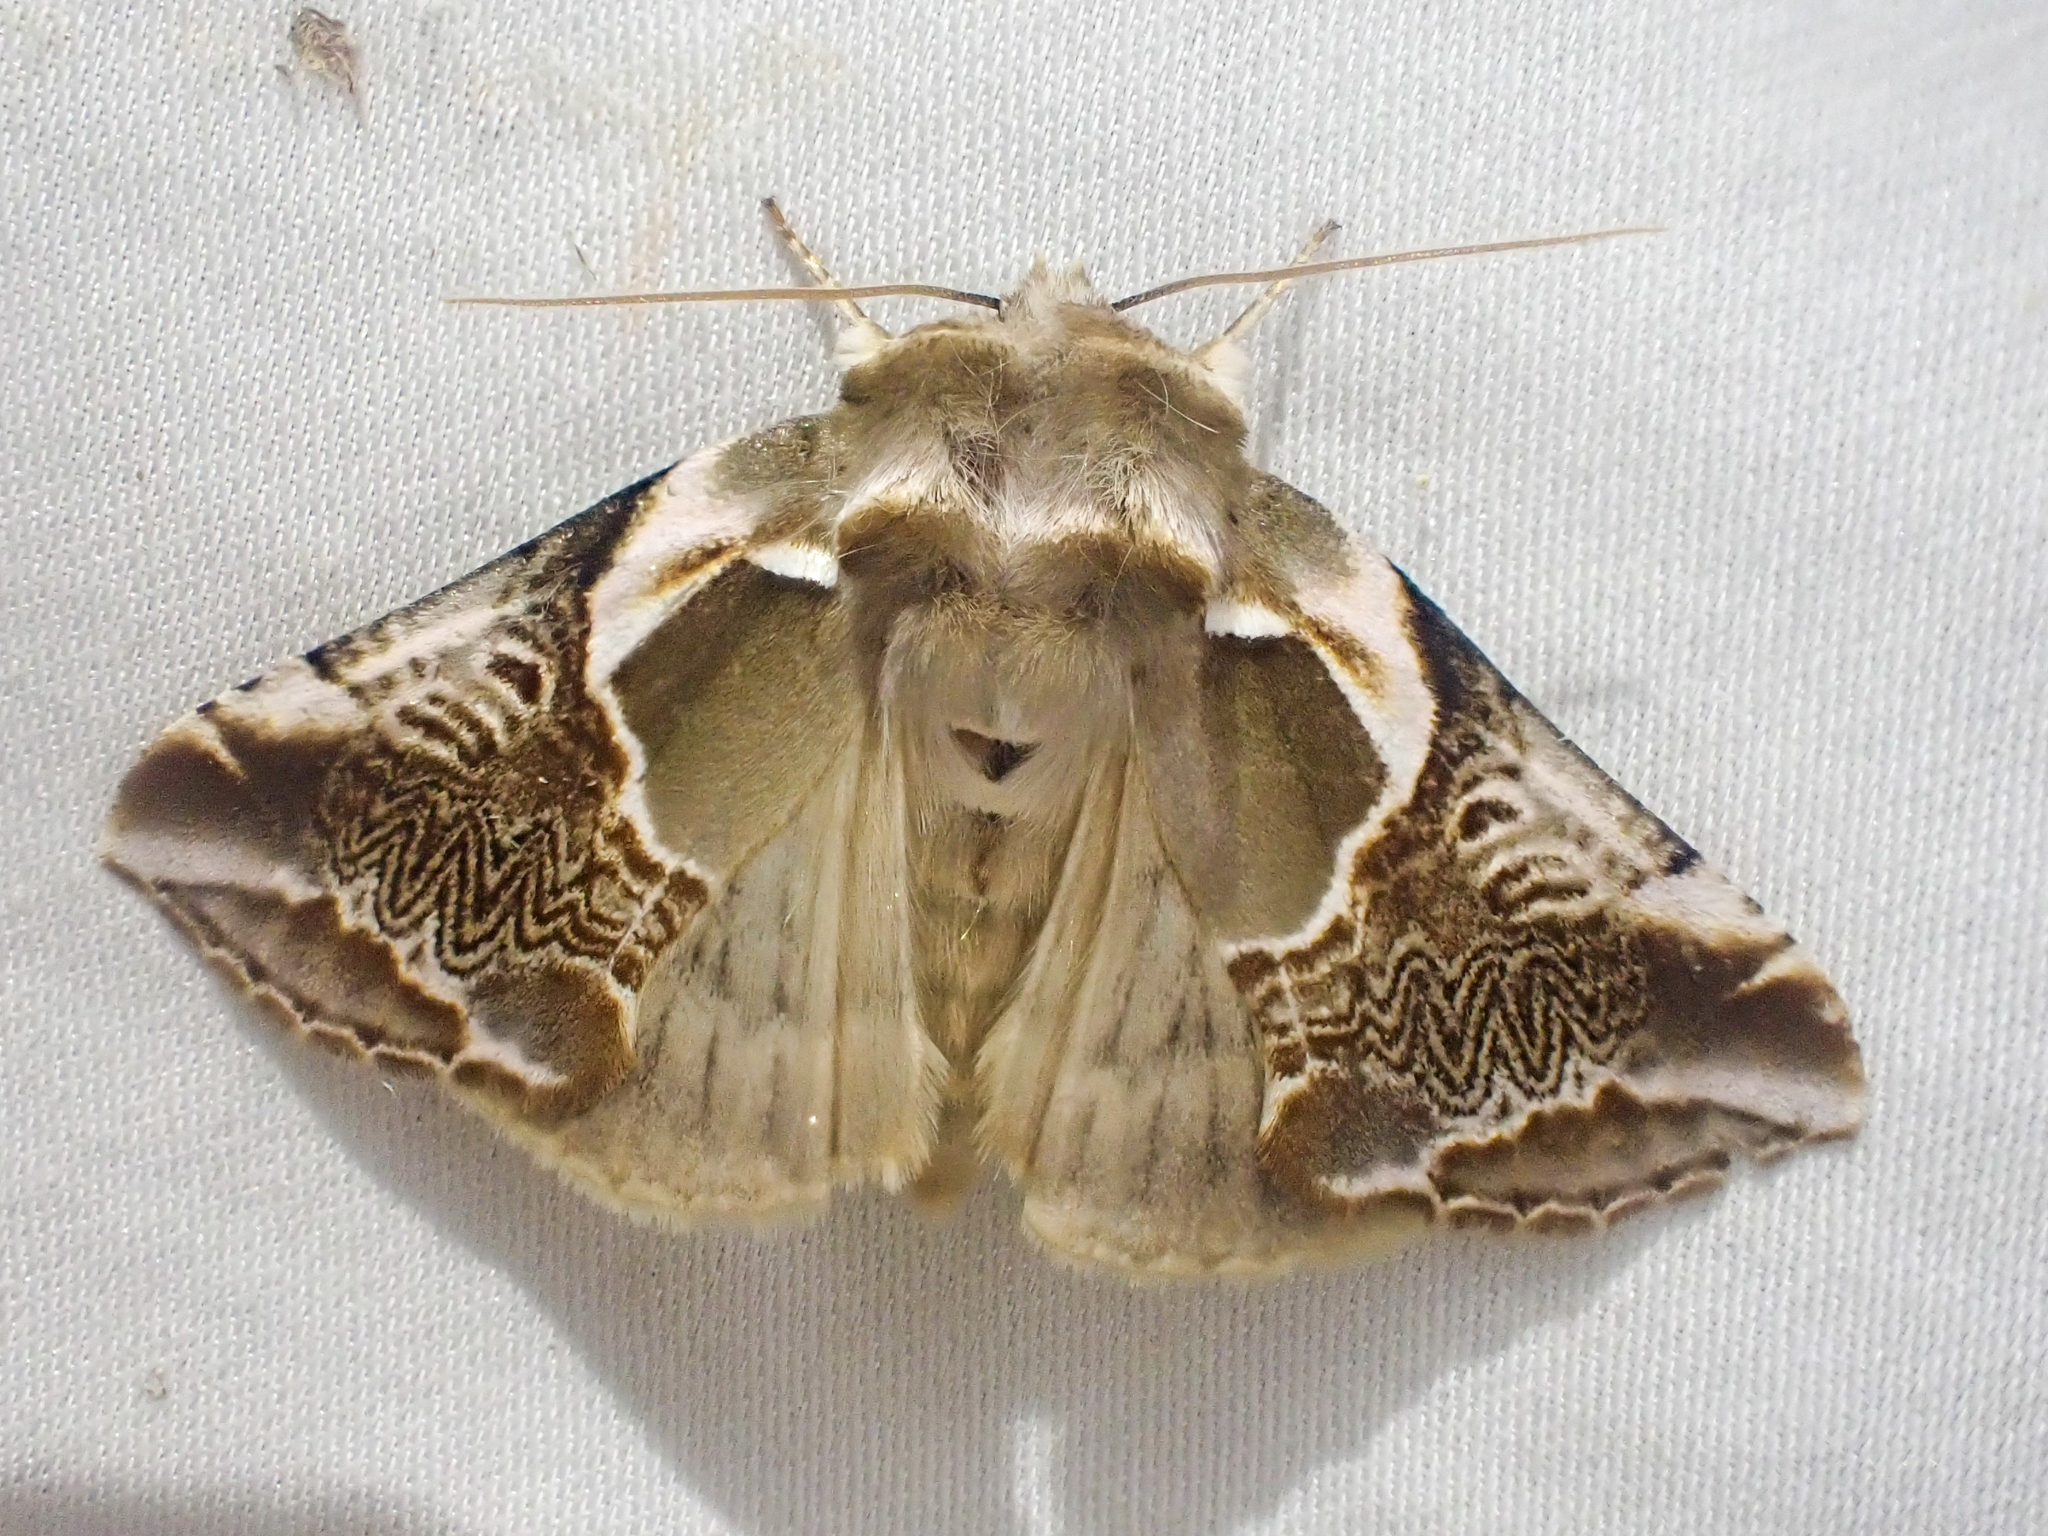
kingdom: Animalia
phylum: Arthropoda
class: Insecta
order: Lepidoptera
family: Drepanidae
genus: Habrosyne
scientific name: Habrosyne scripta
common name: Lettered habrosyne moth
